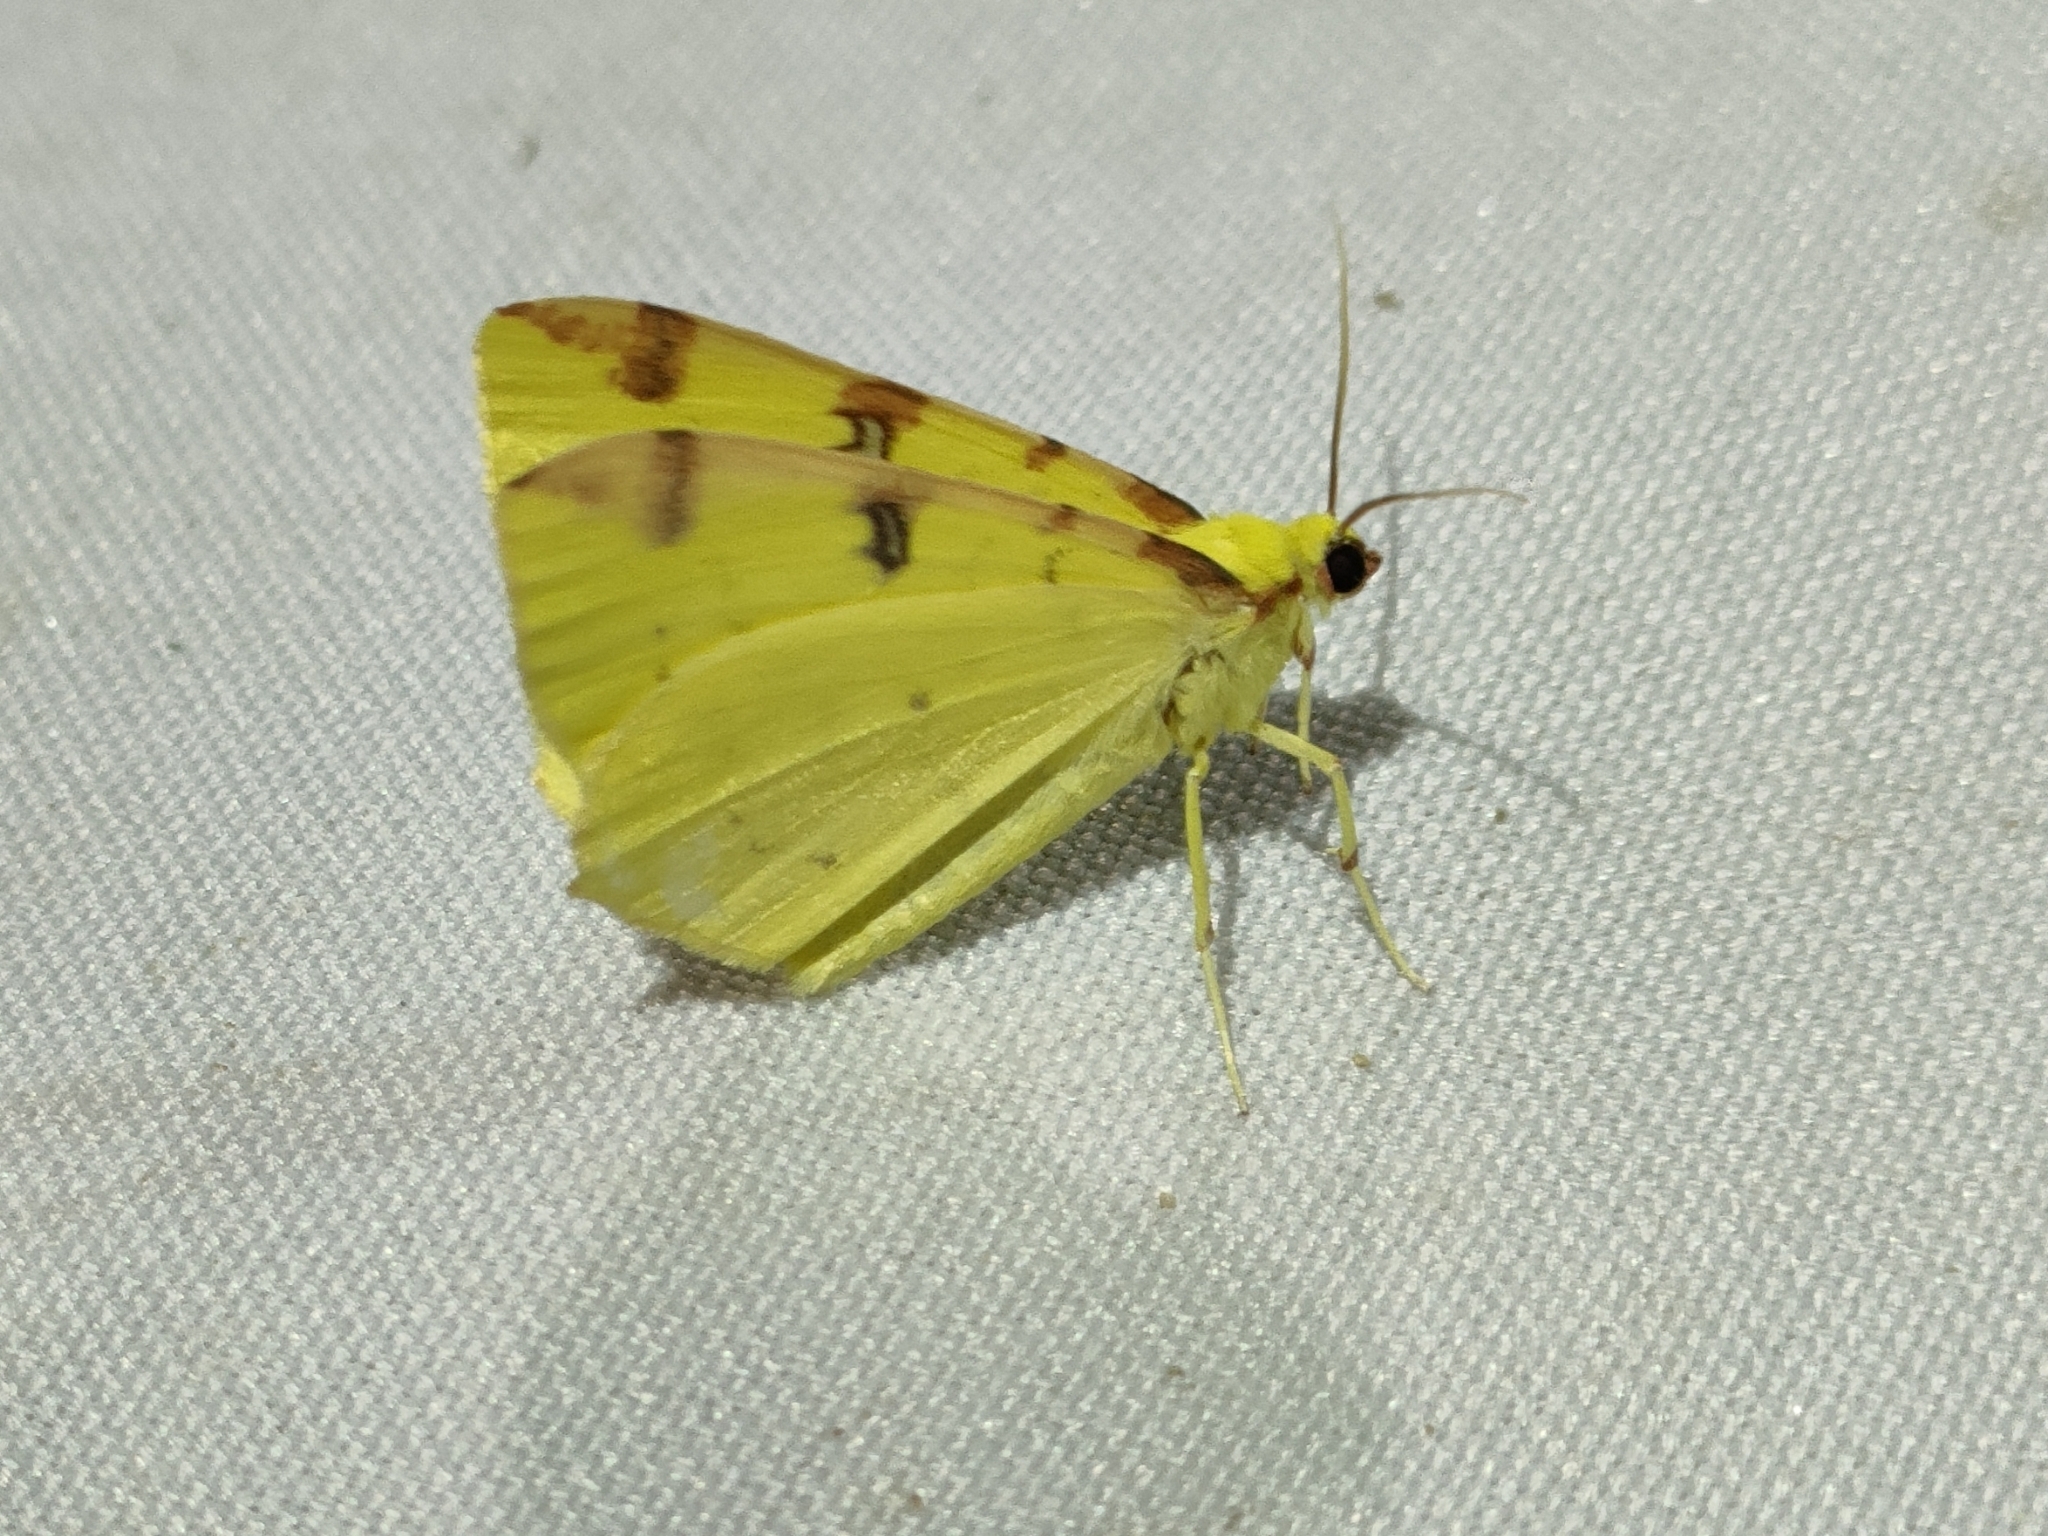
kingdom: Animalia
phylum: Arthropoda
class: Insecta
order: Lepidoptera
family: Geometridae
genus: Opisthograptis
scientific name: Opisthograptis luteolata
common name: Brimstone moth
